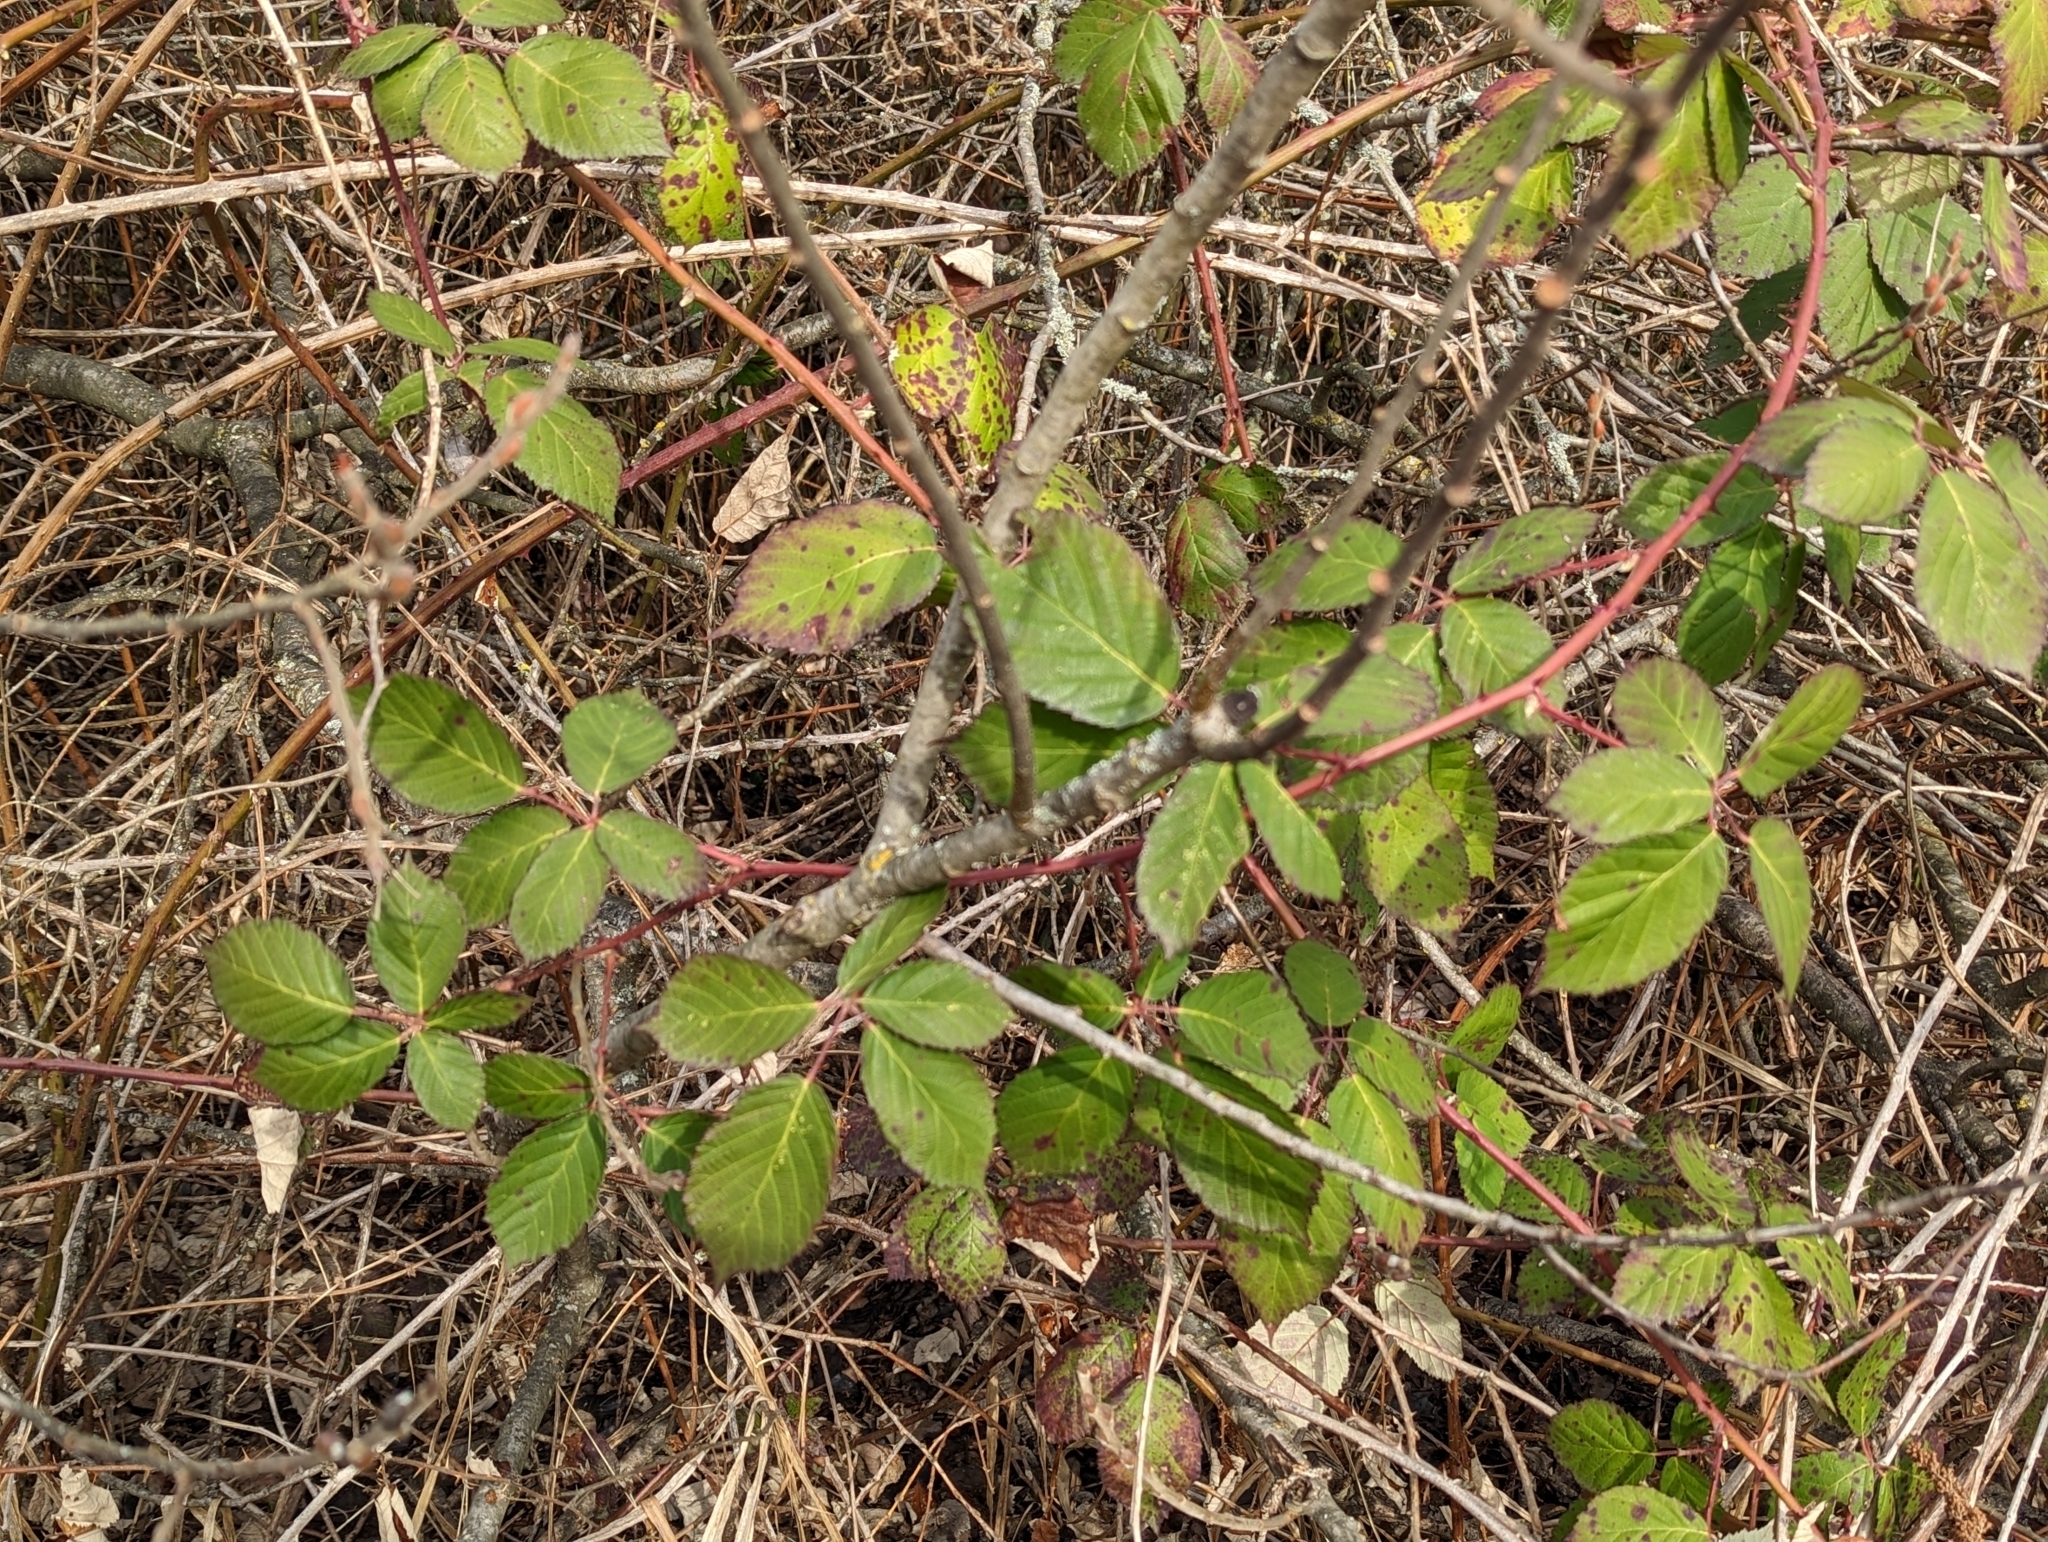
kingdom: Plantae
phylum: Tracheophyta
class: Magnoliopsida
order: Rosales
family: Rosaceae
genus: Rubus
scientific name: Rubus bifrons
